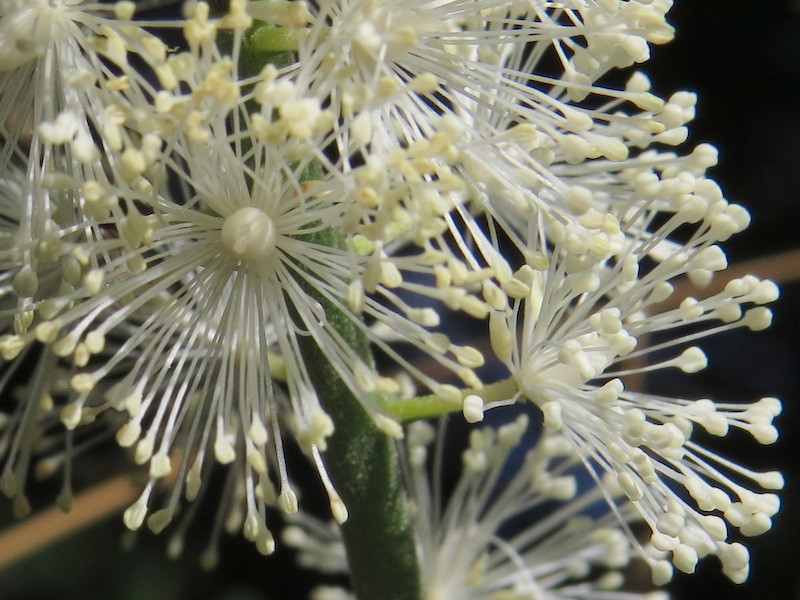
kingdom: Plantae
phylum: Tracheophyta
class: Magnoliopsida
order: Ranunculales
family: Ranunculaceae
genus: Actaea
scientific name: Actaea racemosa
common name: Black cohosh
